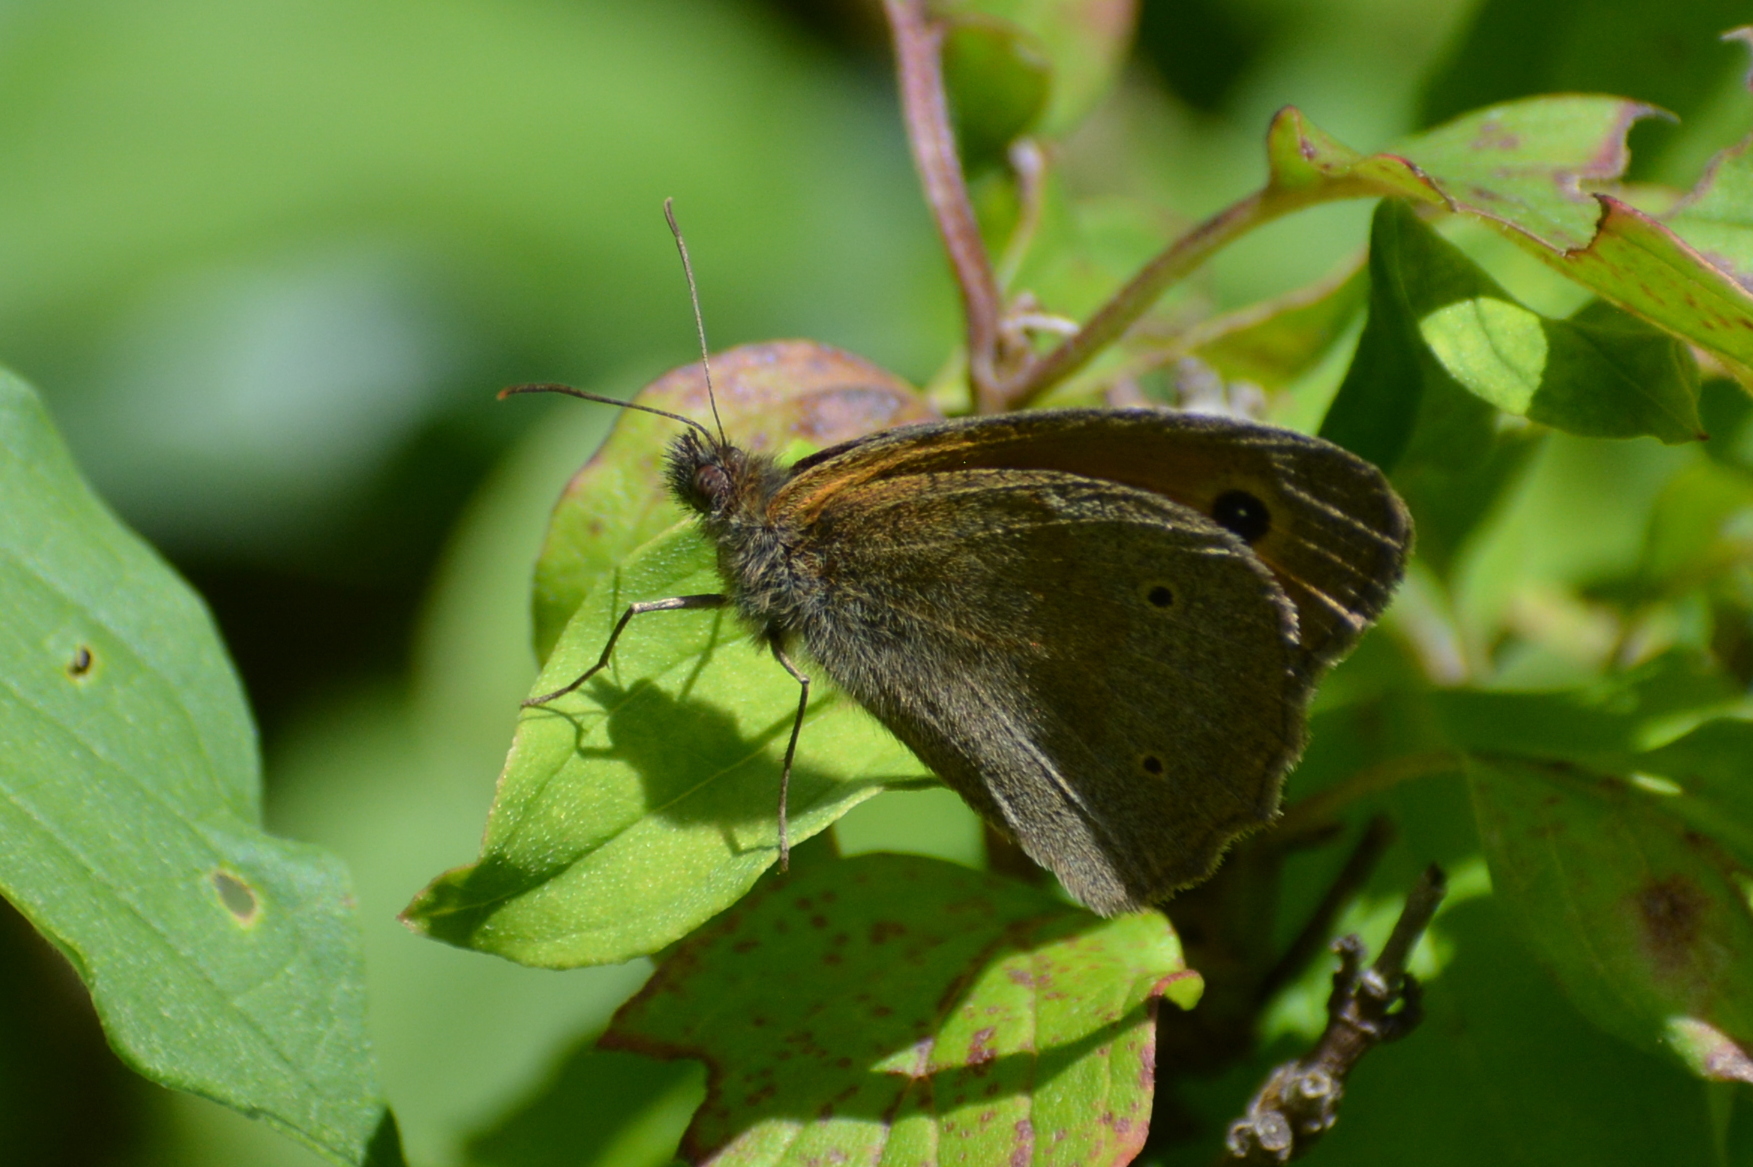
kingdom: Animalia
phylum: Arthropoda
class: Insecta
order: Lepidoptera
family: Nymphalidae
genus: Maniola
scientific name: Maniola jurtina
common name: Meadow brown
